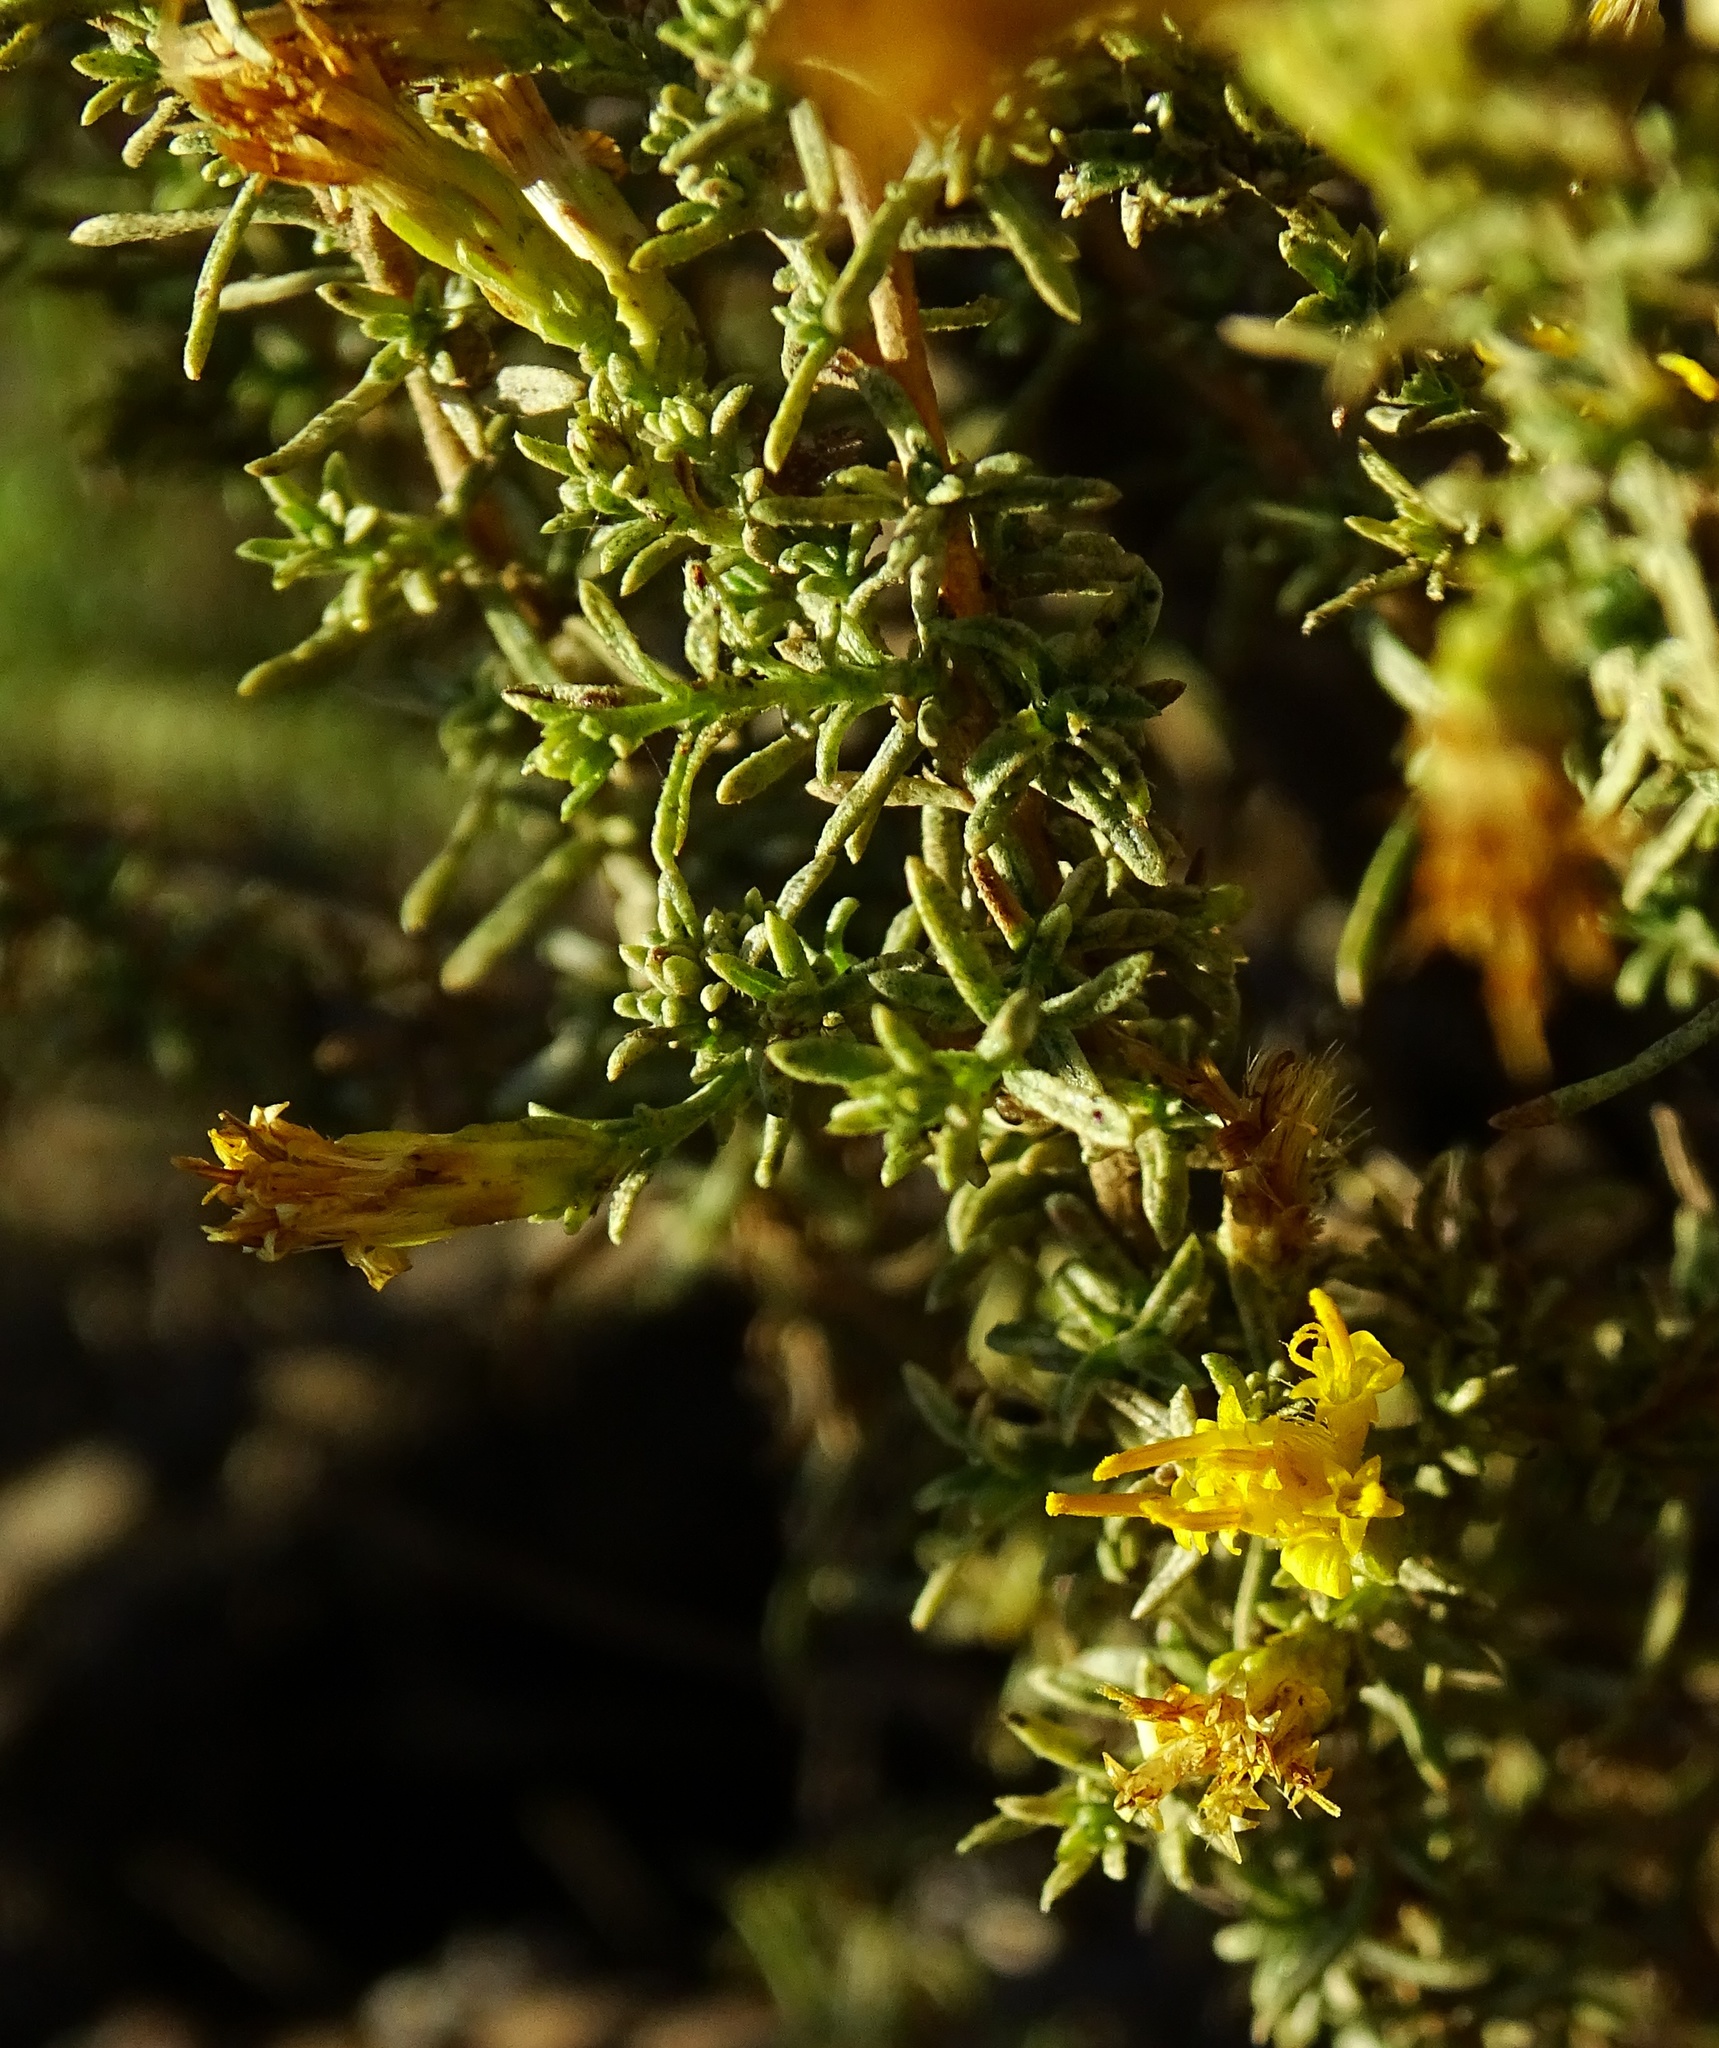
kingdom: Plantae
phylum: Tracheophyta
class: Magnoliopsida
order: Asterales
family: Asteraceae
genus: Ericameria
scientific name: Ericameria palmeri
